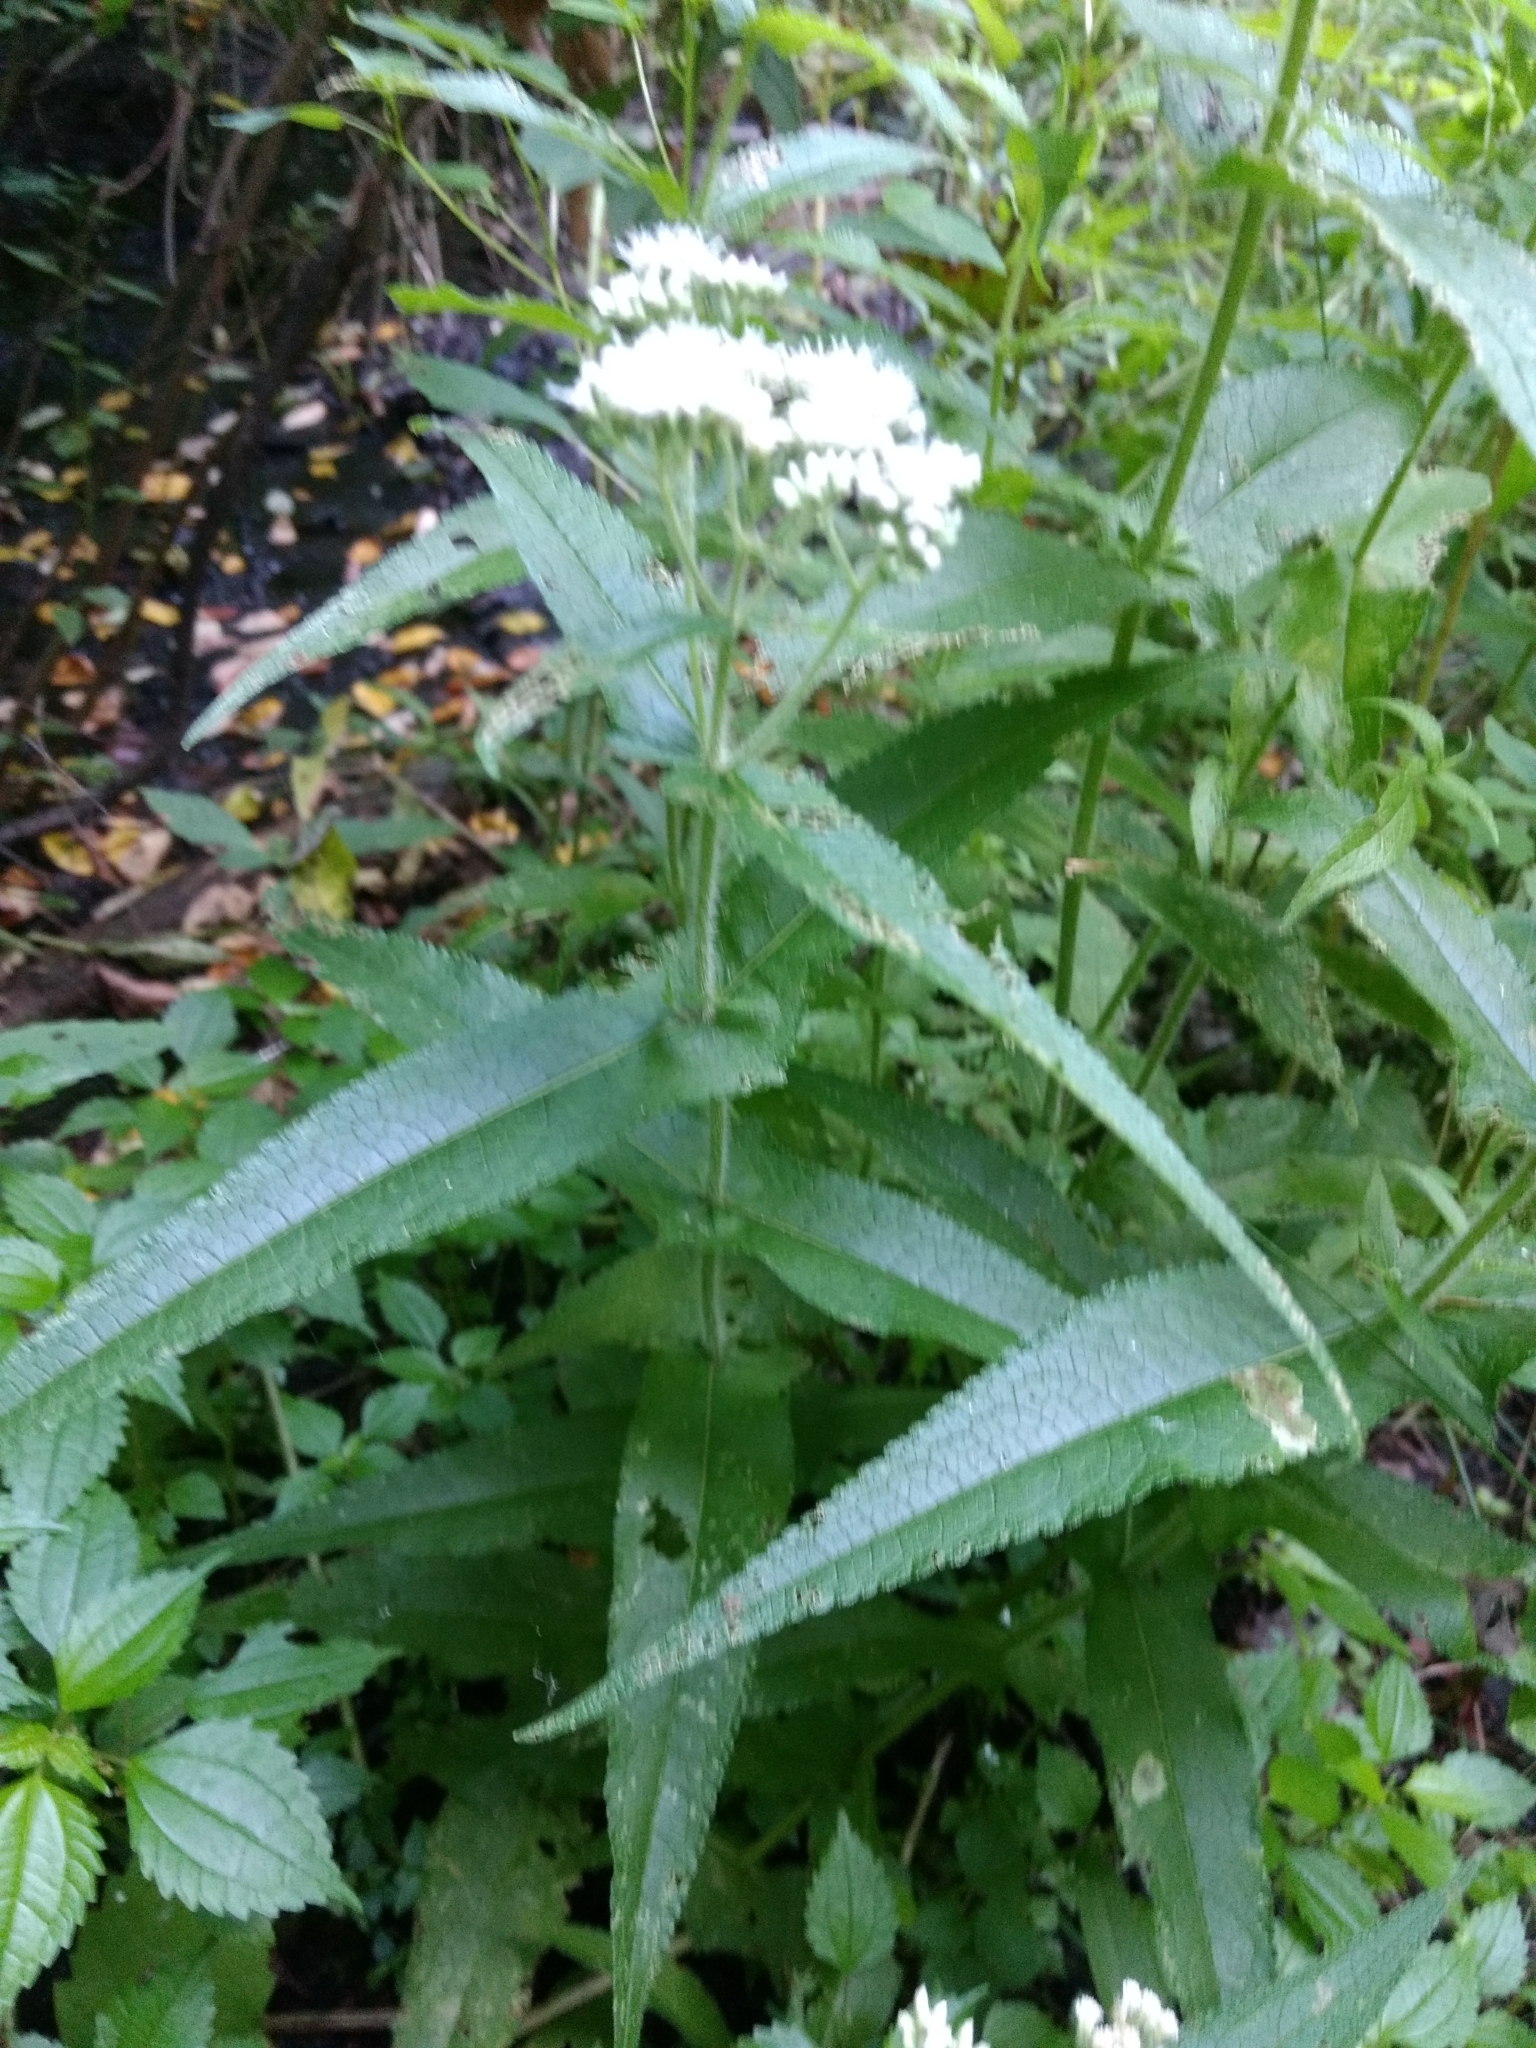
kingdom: Plantae
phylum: Tracheophyta
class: Magnoliopsida
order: Asterales
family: Asteraceae
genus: Eupatorium
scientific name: Eupatorium perfoliatum
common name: Boneset
